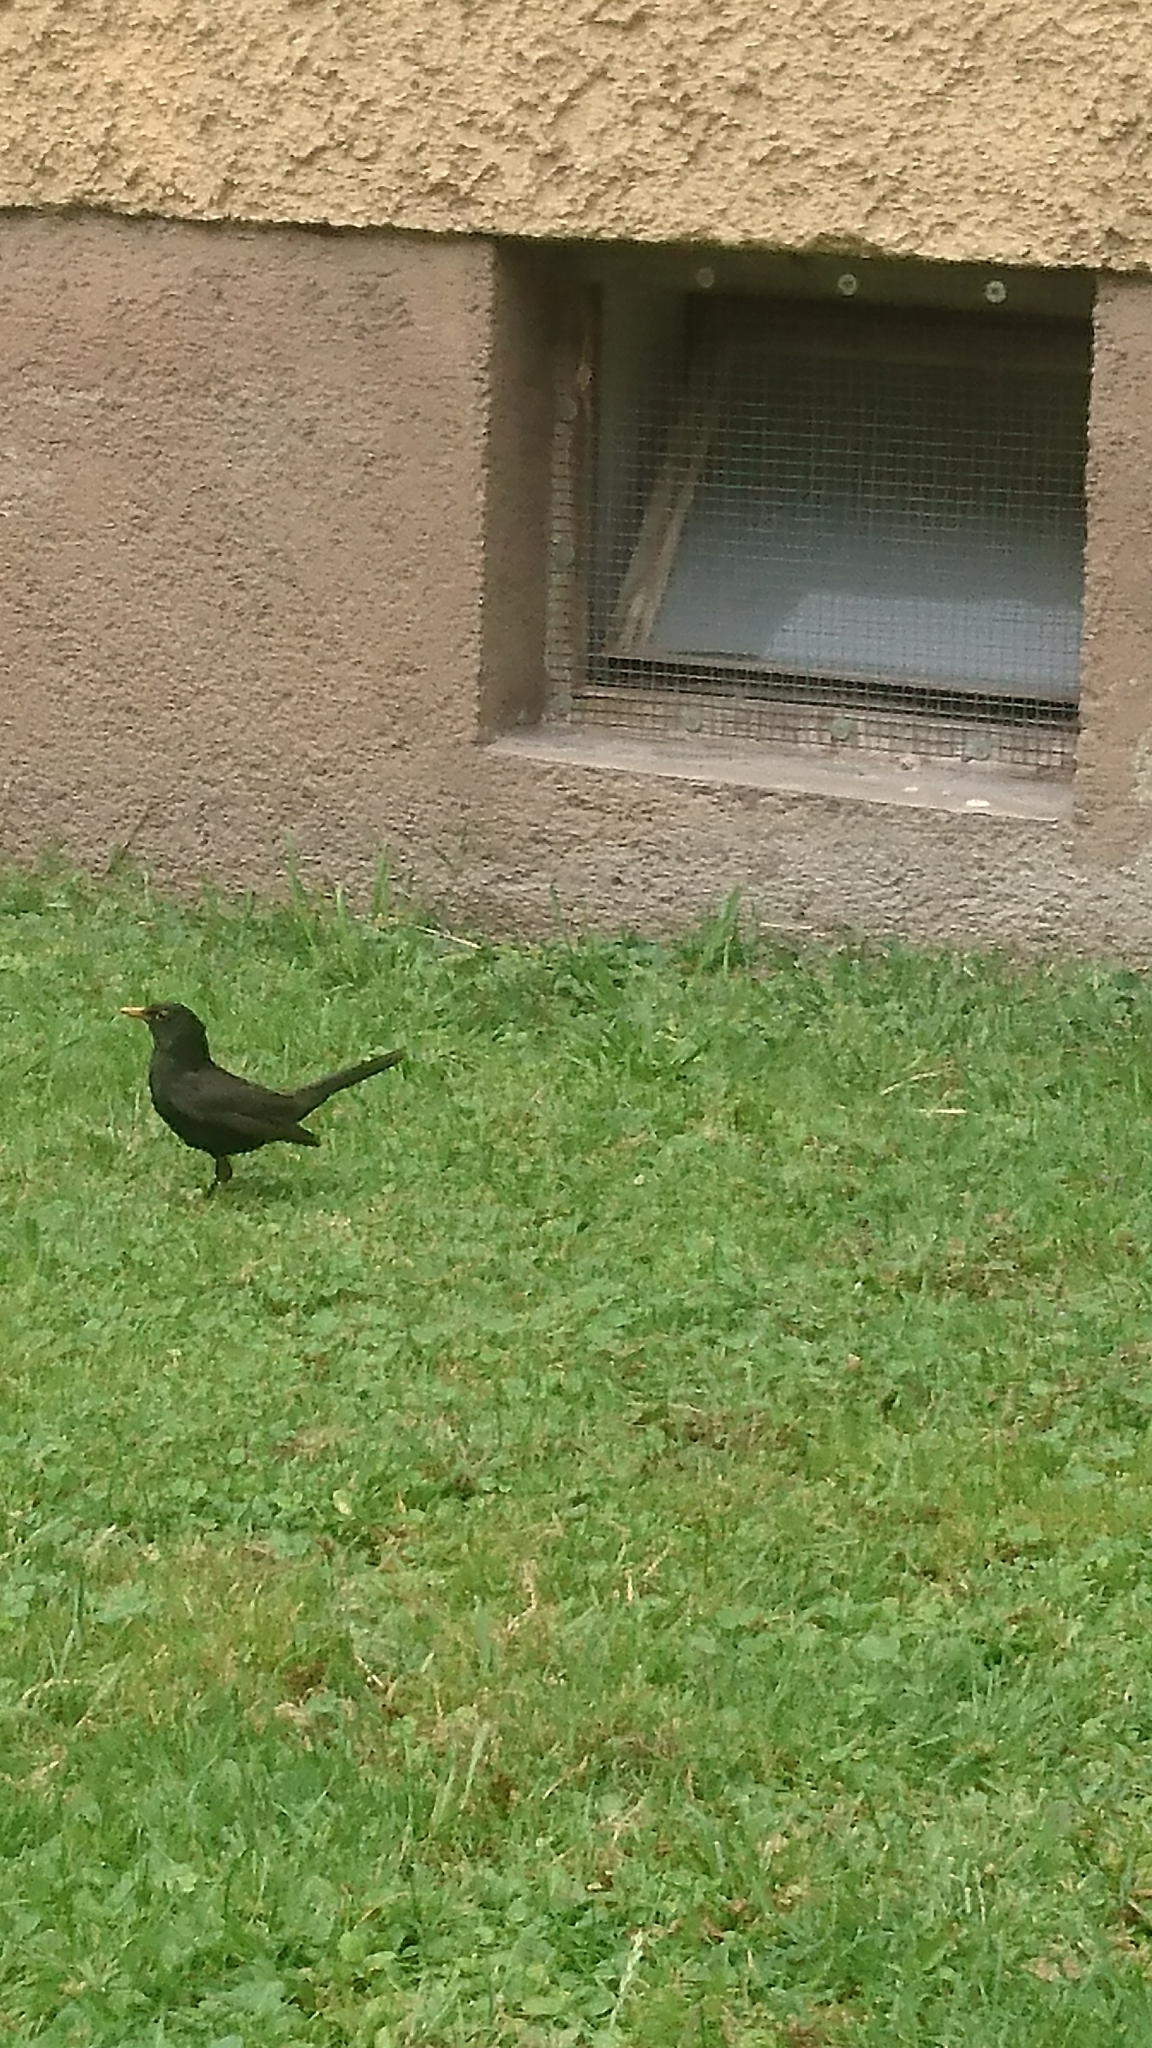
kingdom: Animalia
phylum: Chordata
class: Aves
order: Passeriformes
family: Turdidae
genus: Turdus
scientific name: Turdus merula
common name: Common blackbird
